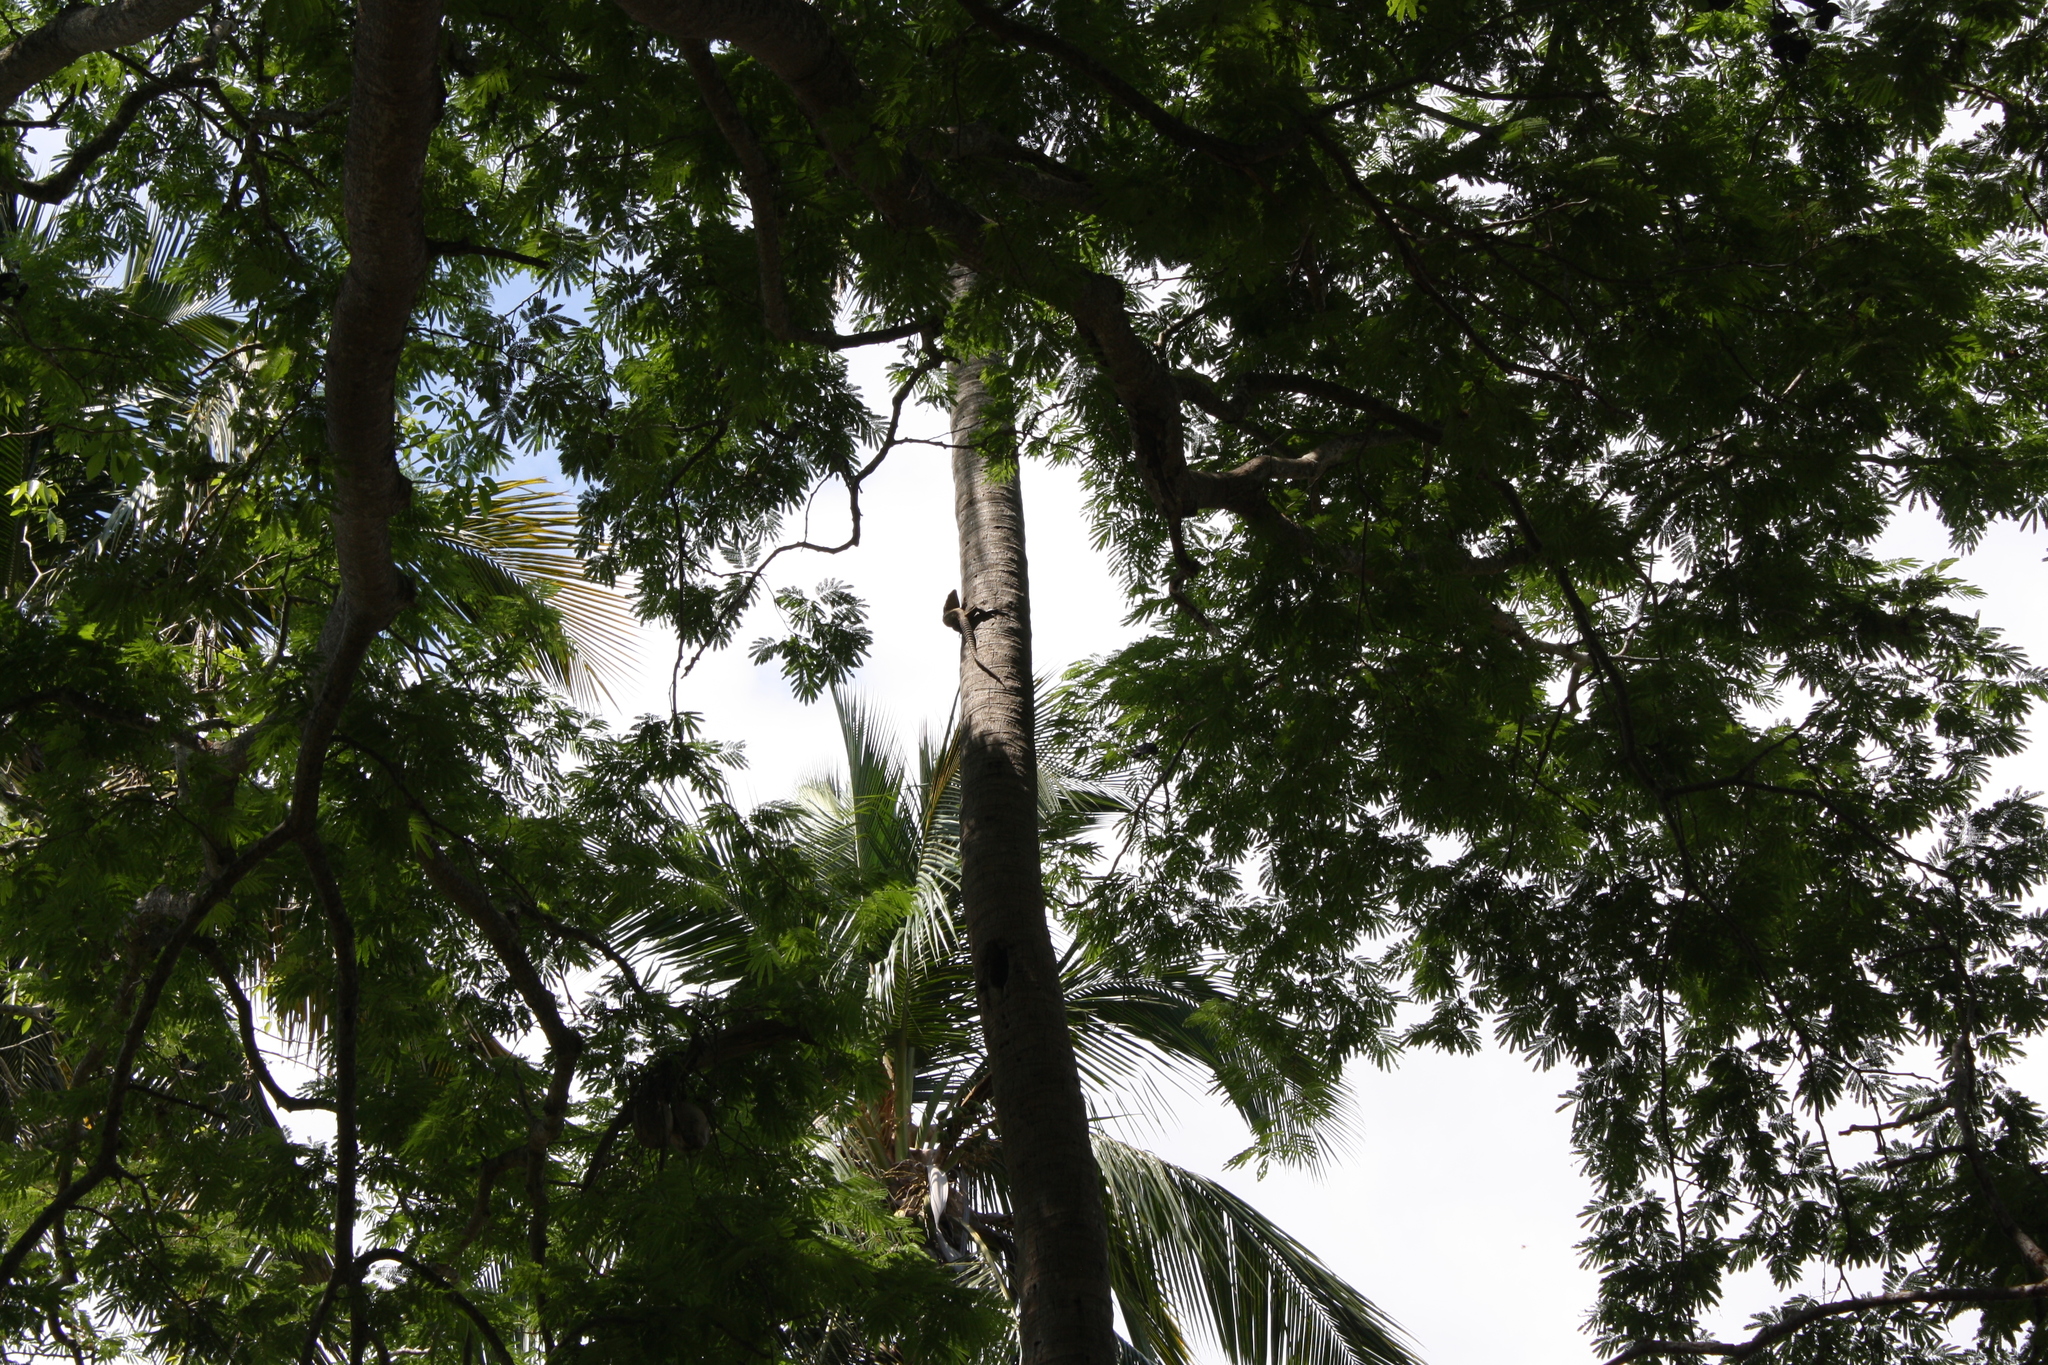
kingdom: Animalia
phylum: Chordata
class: Squamata
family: Iguanidae
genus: Ctenosaura
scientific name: Ctenosaura acanthura
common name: Northeastern spinytail iguana
